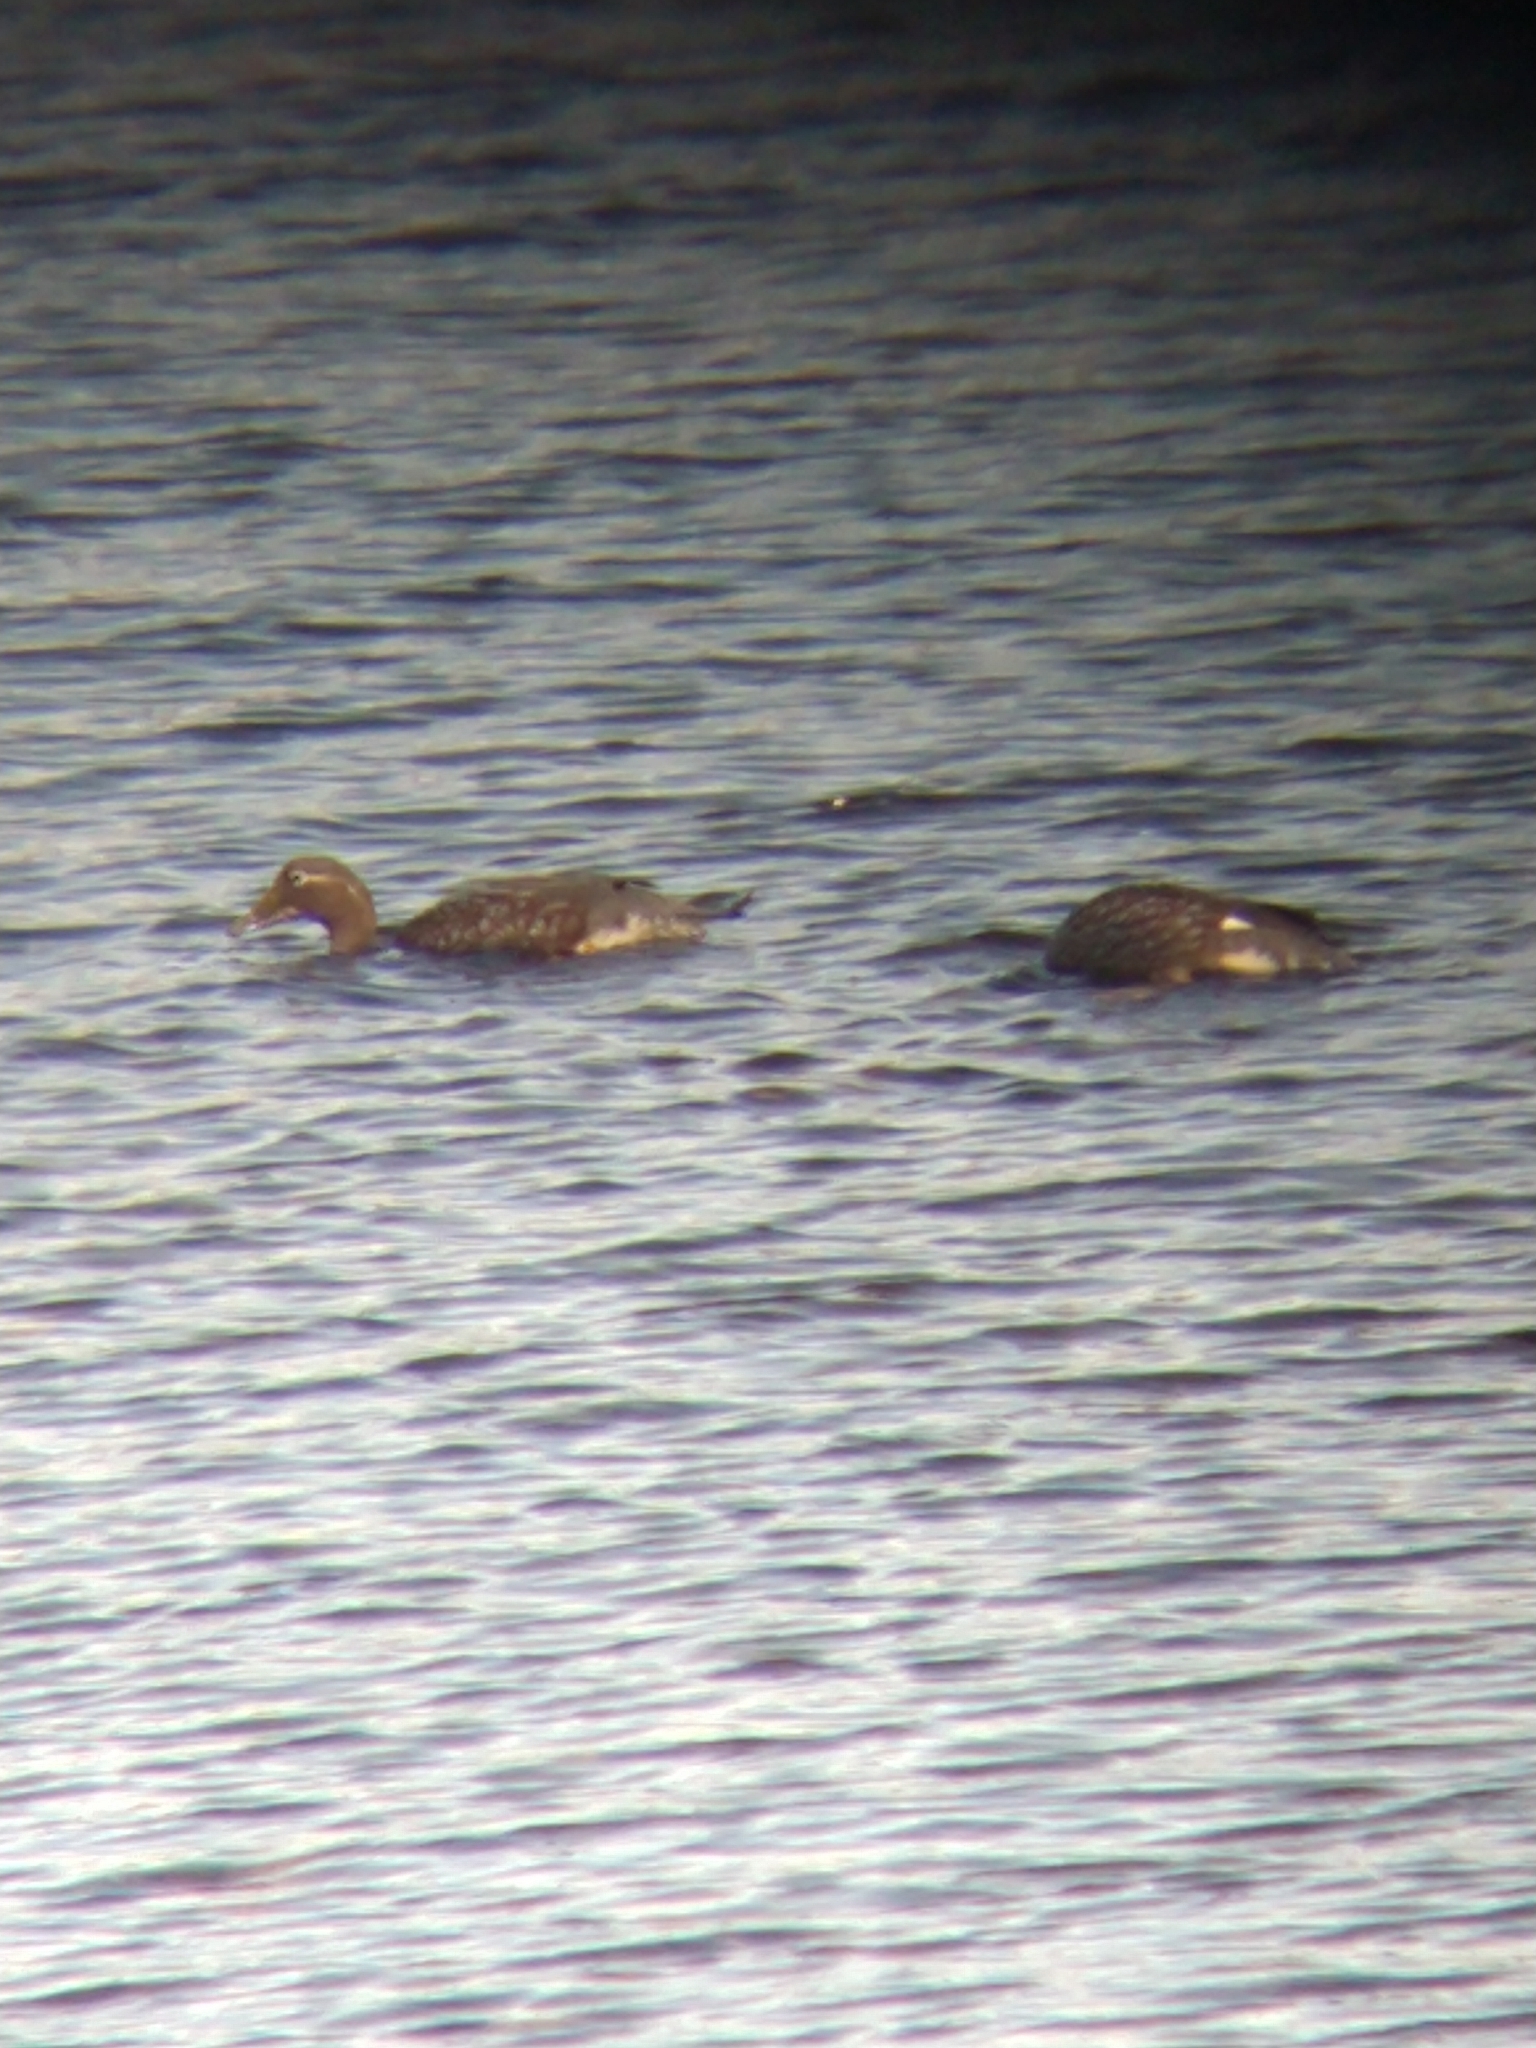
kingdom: Animalia
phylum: Chordata
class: Aves
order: Anseriformes
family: Anatidae
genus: Tachyeres
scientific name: Tachyeres patachonicus
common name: Flying steamer duck
